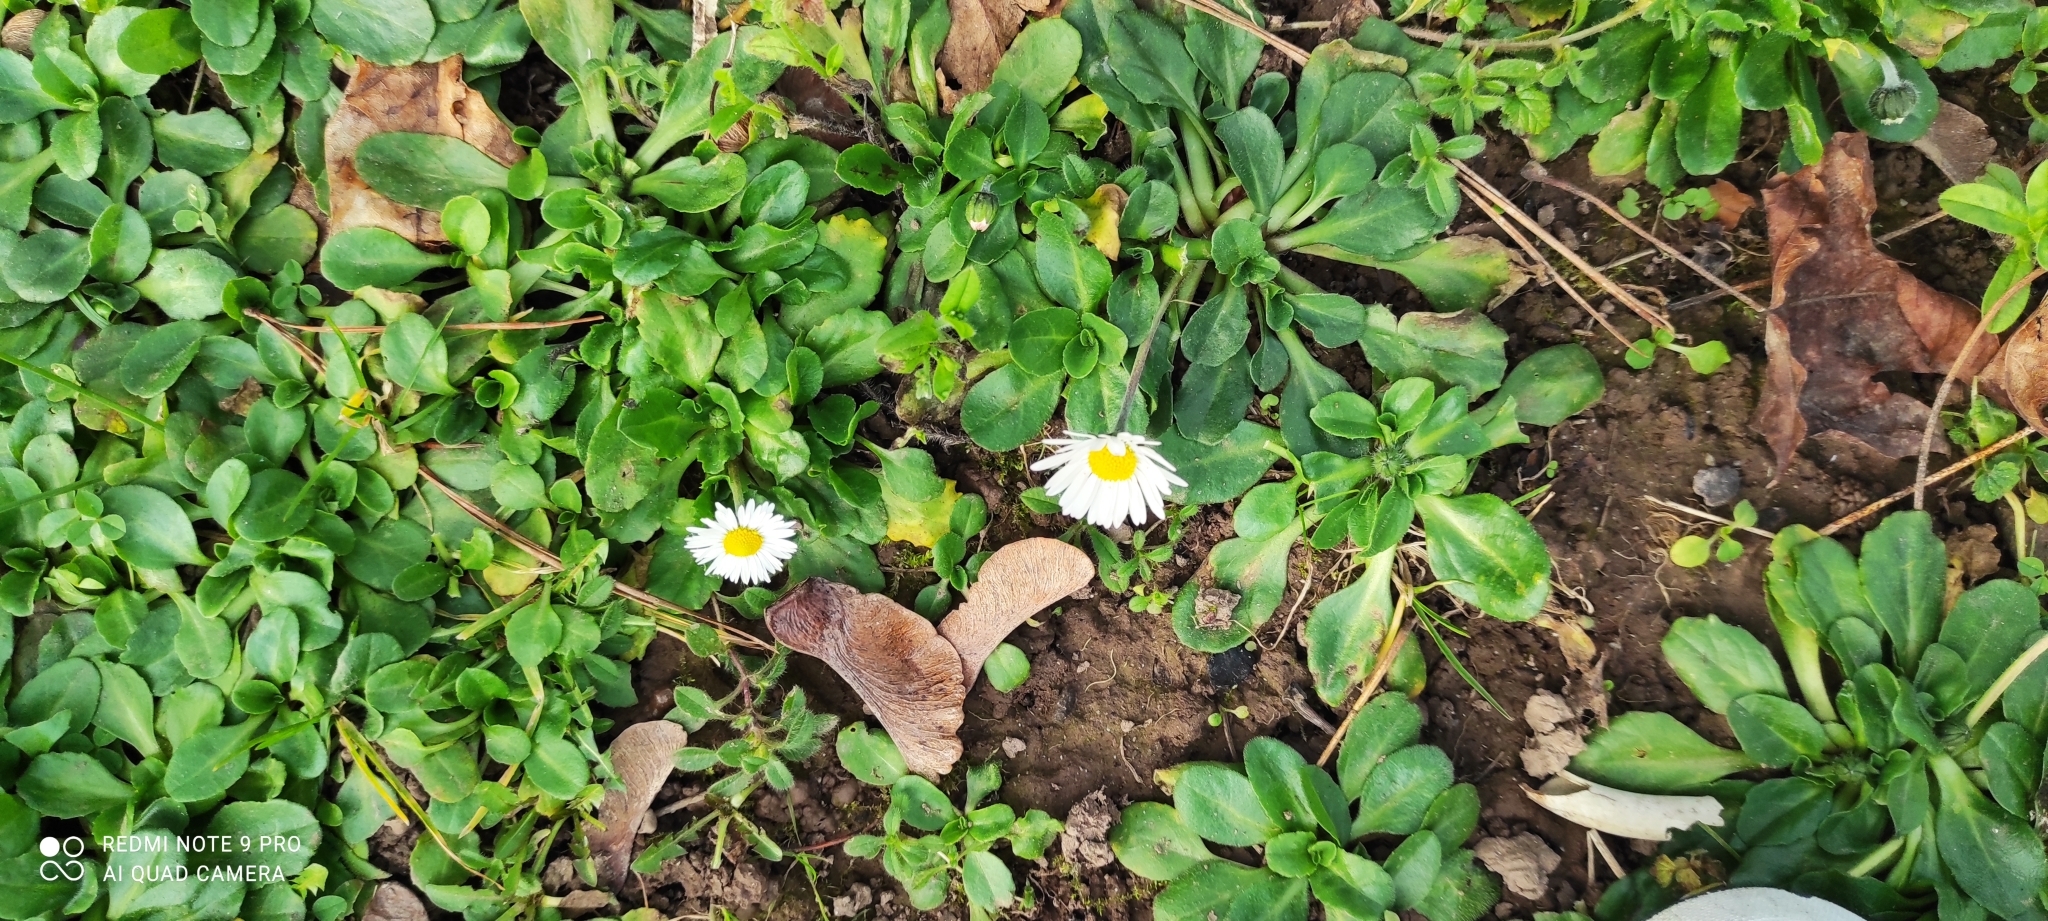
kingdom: Plantae
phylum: Tracheophyta
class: Magnoliopsida
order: Asterales
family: Asteraceae
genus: Bellis
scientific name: Bellis perennis
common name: Lawndaisy
